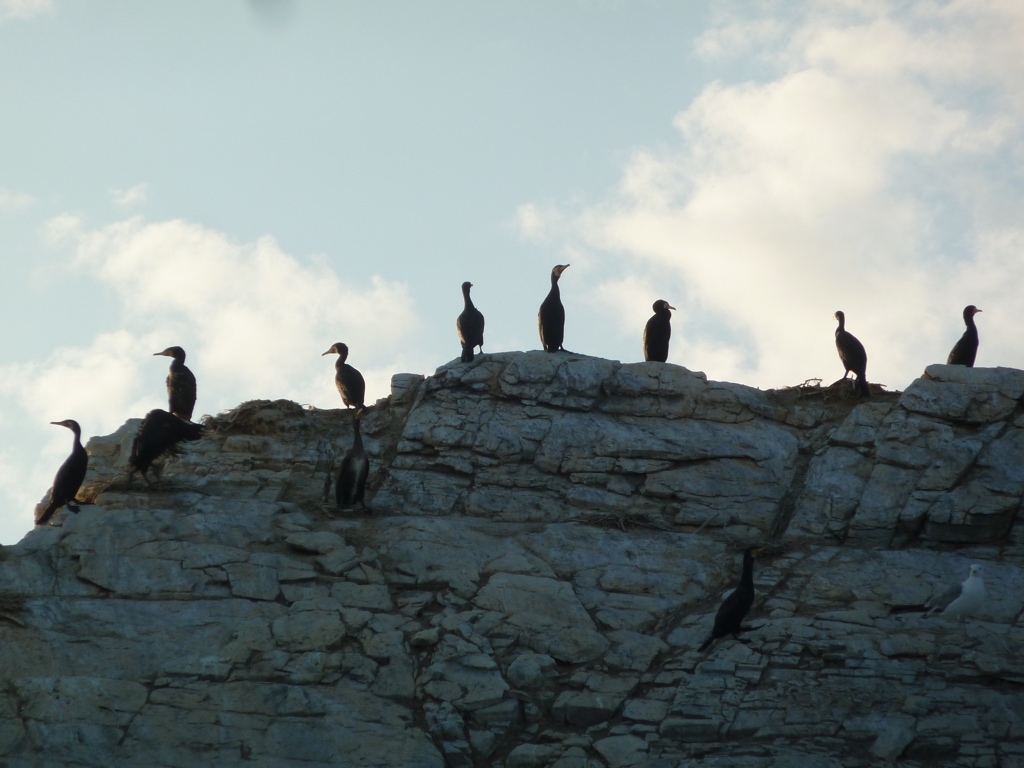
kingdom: Animalia
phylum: Chordata
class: Aves
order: Suliformes
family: Phalacrocoracidae
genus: Phalacrocorax
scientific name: Phalacrocorax carbo
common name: Great cormorant
